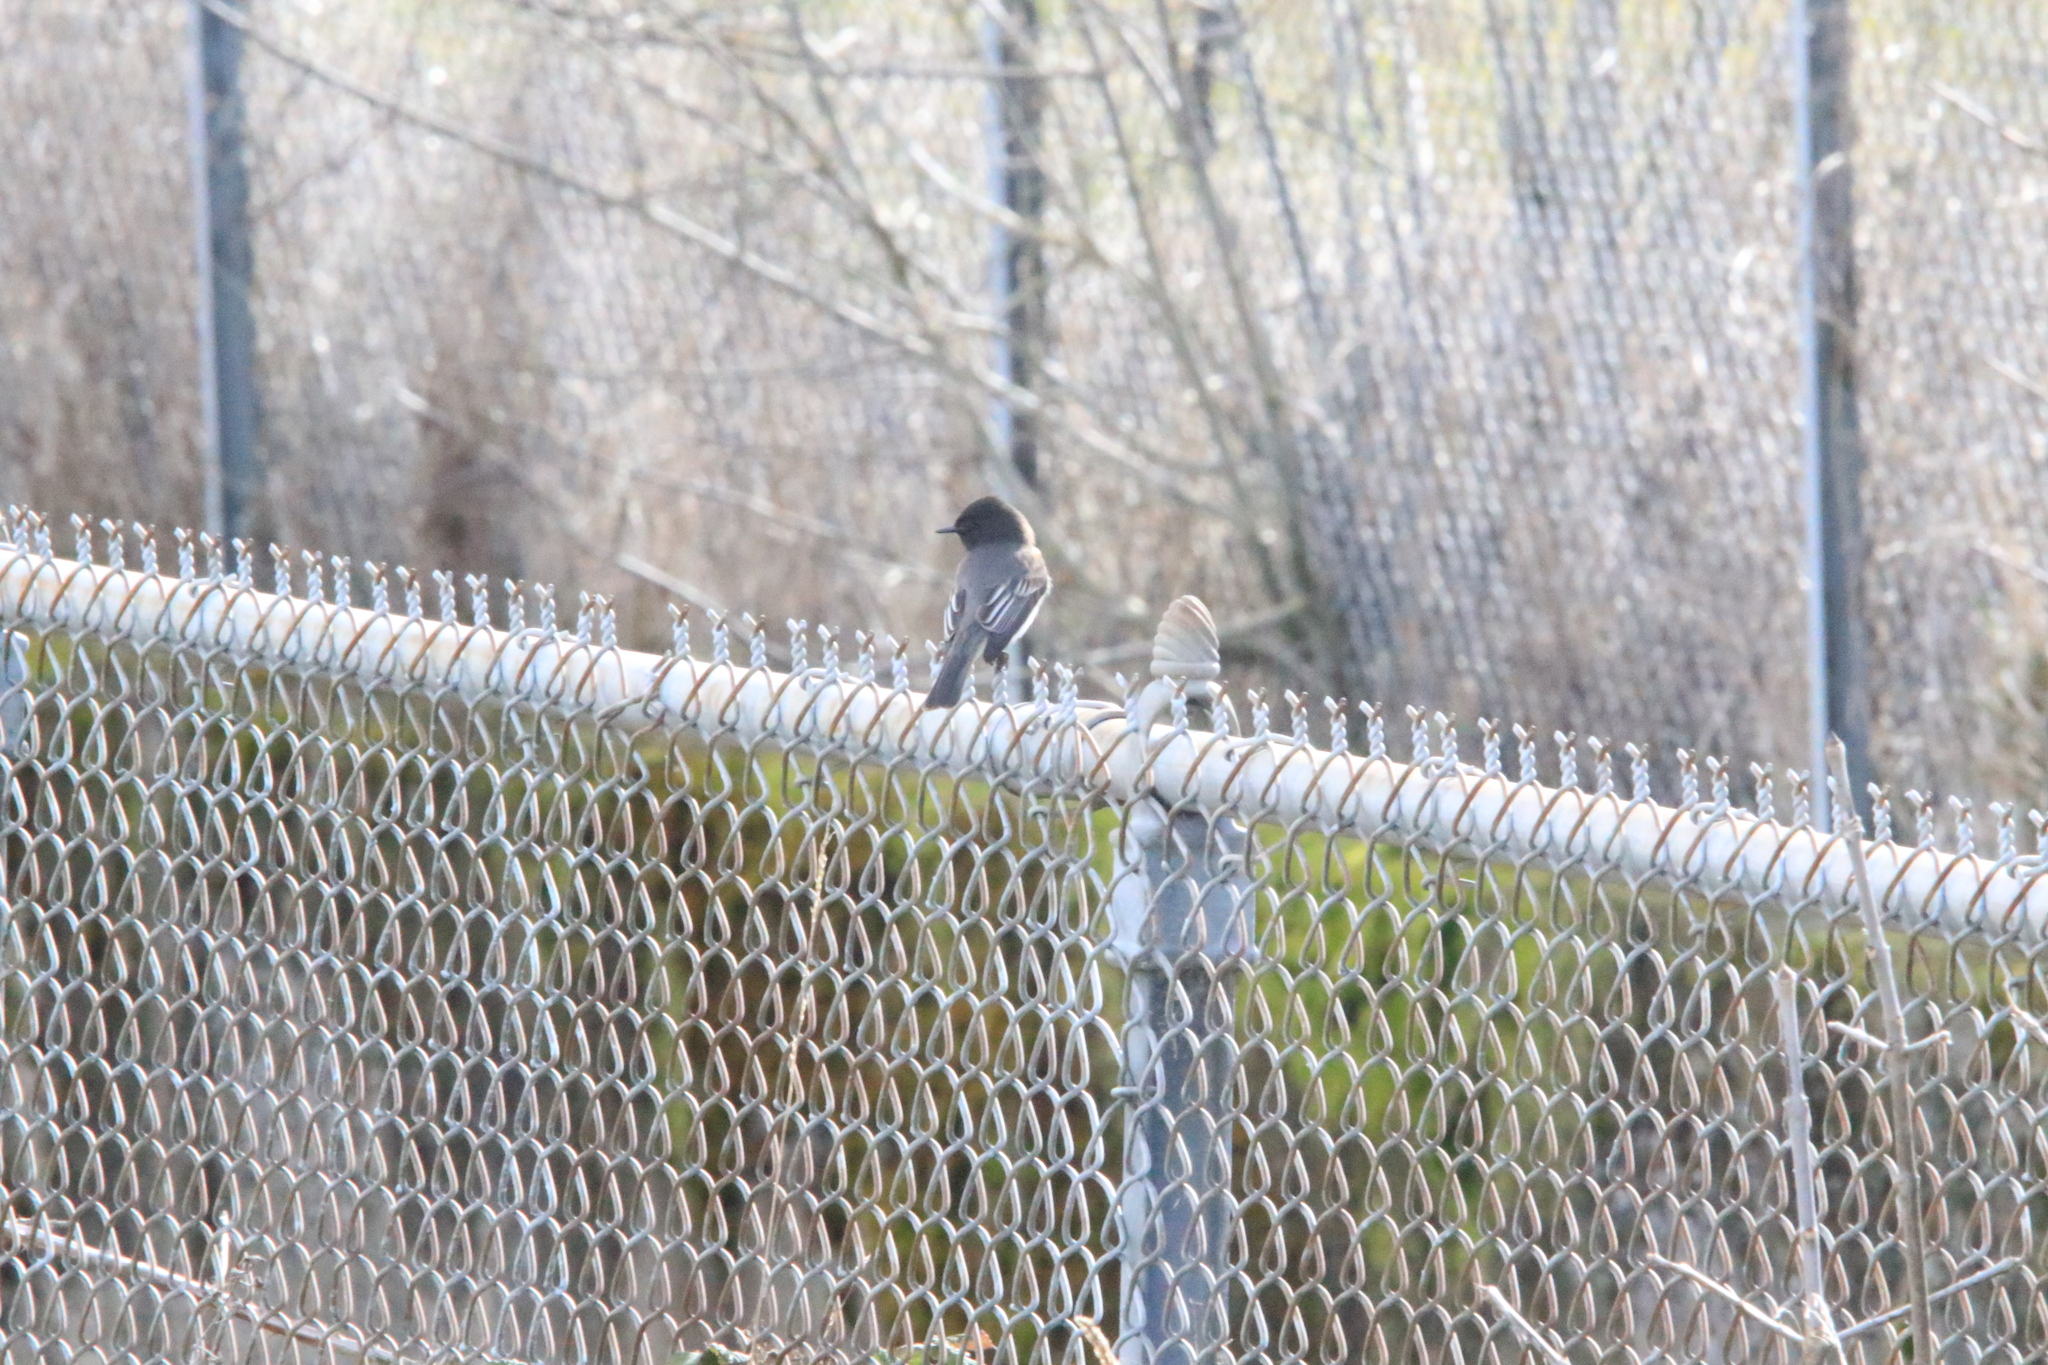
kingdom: Animalia
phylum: Chordata
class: Aves
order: Passeriformes
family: Tyrannidae
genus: Sayornis
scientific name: Sayornis nigricans
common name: Black phoebe
